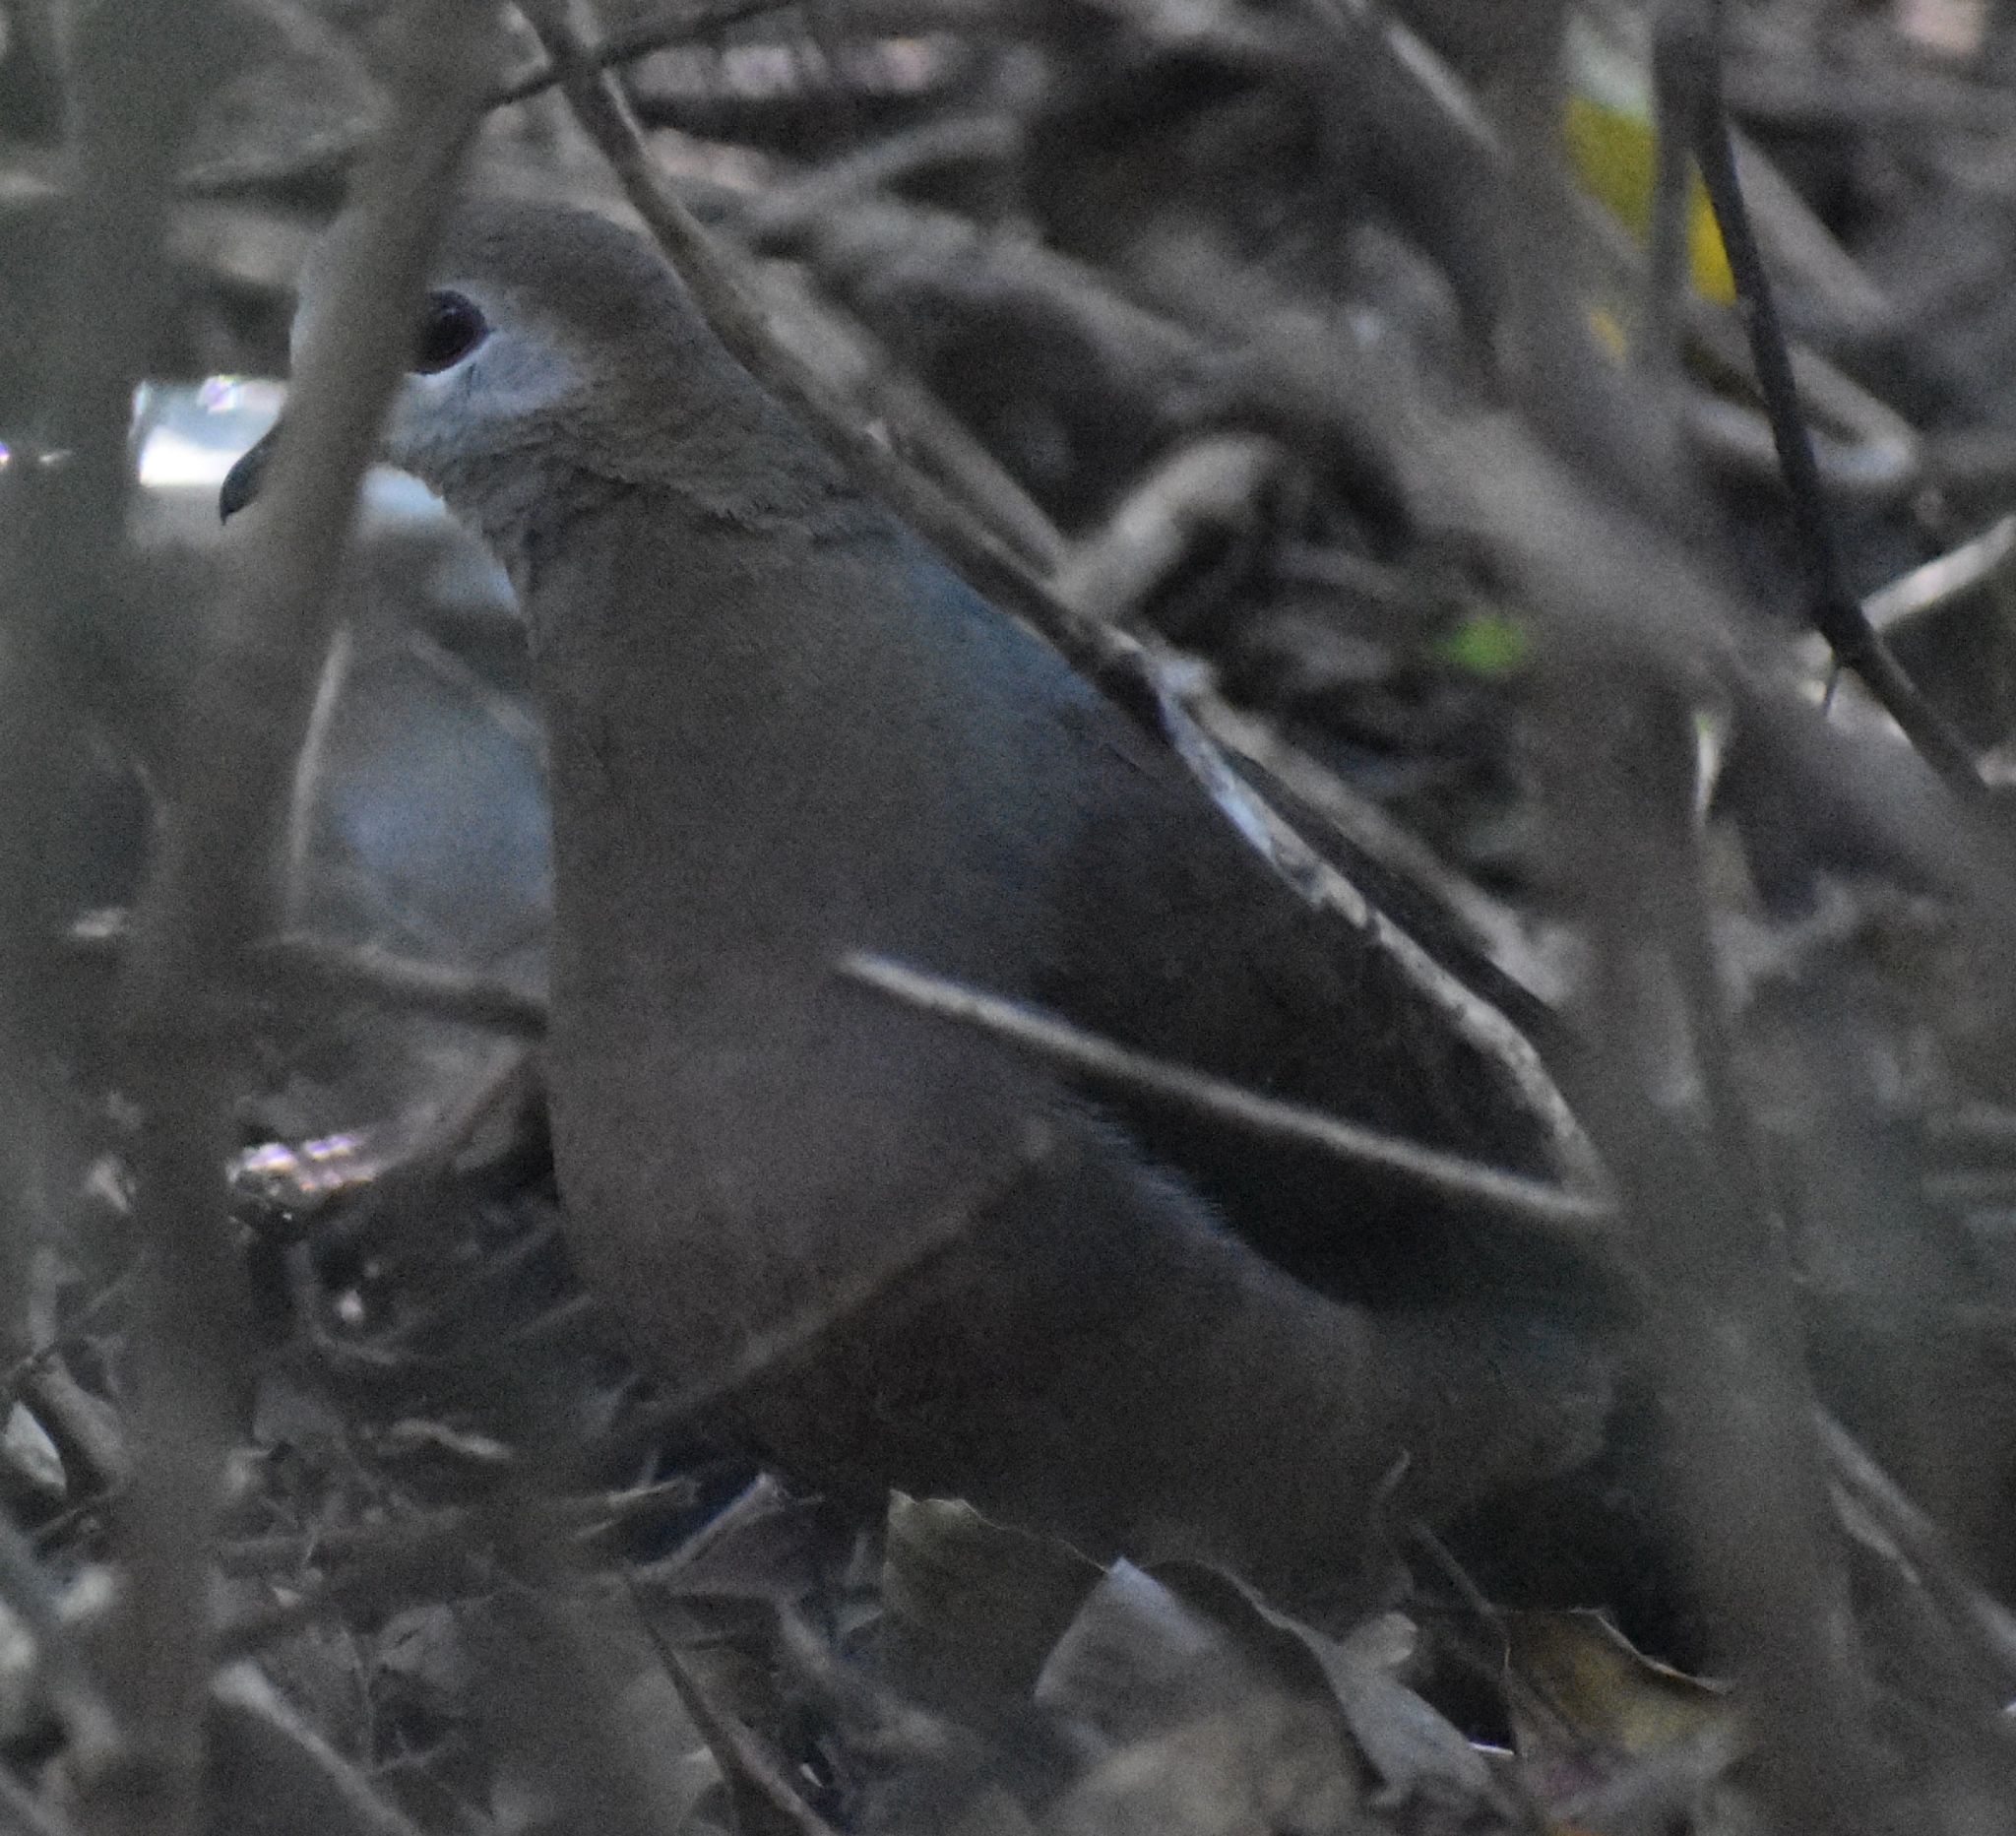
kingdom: Animalia
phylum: Chordata
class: Aves
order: Columbiformes
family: Columbidae
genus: Columba
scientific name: Columba larvata
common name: Lemon dove
